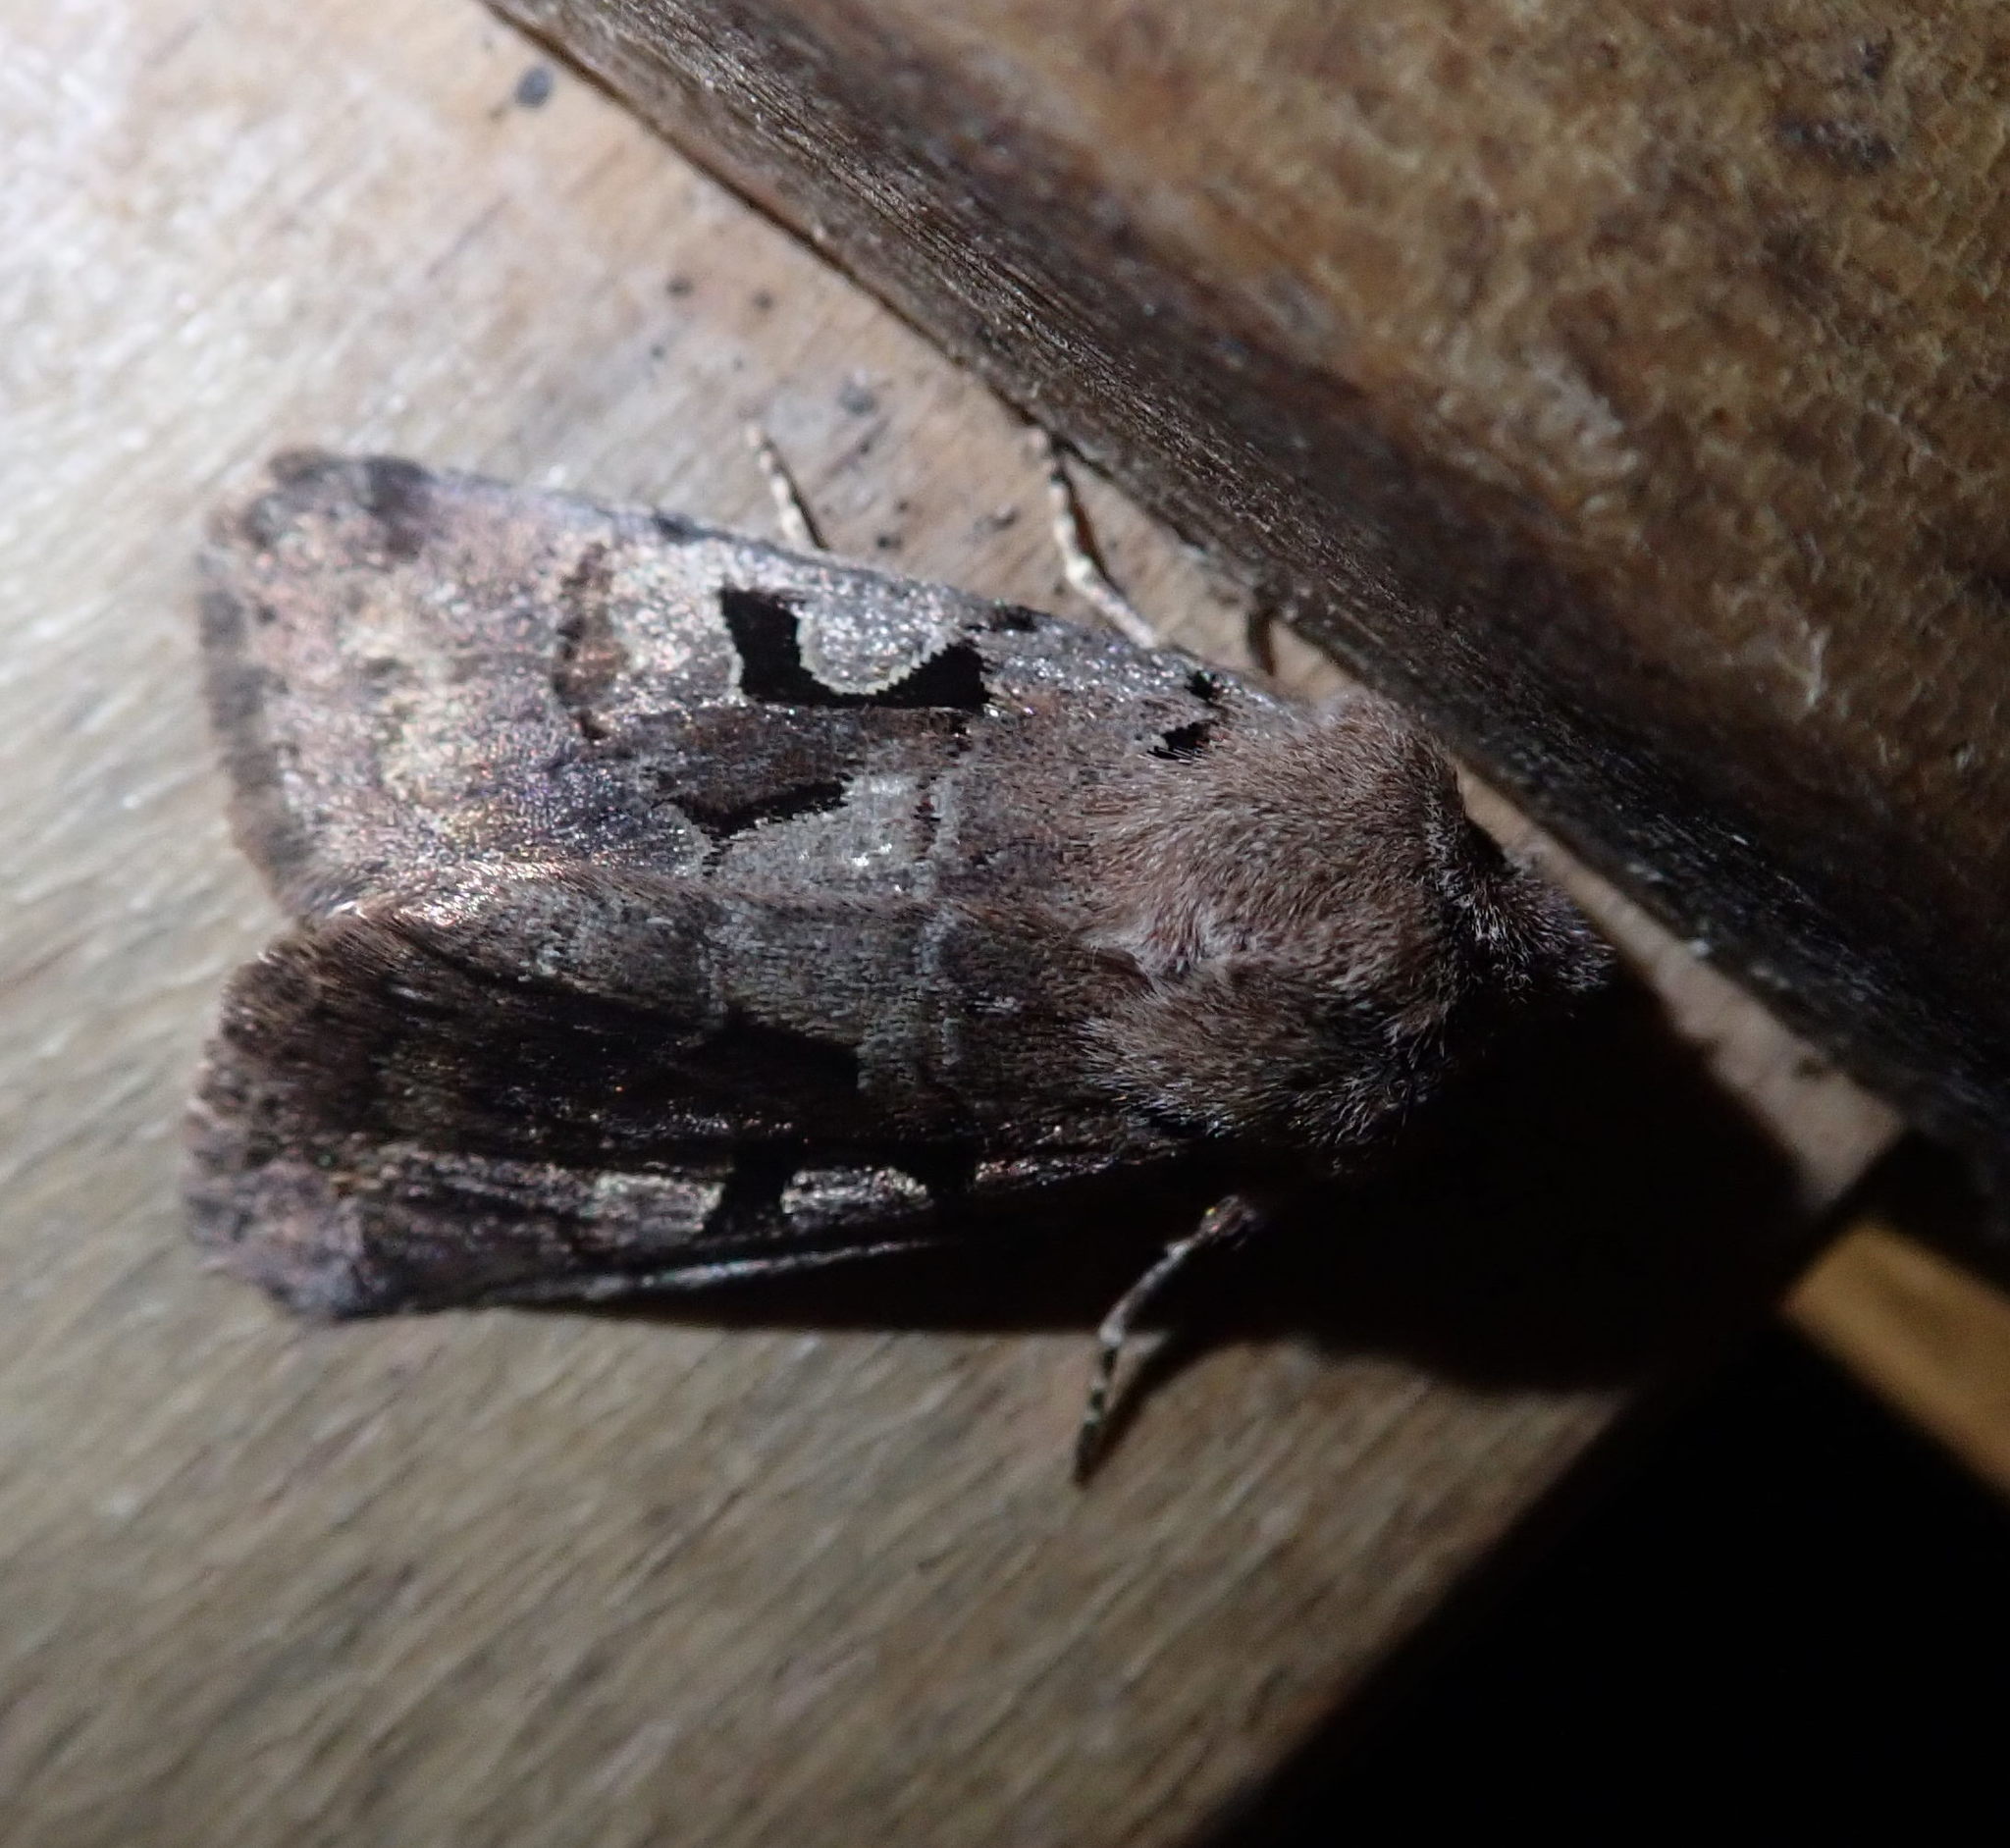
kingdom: Animalia
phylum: Arthropoda
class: Insecta
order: Lepidoptera
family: Noctuidae
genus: Orthosia
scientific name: Orthosia gothica
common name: Hebrew character
